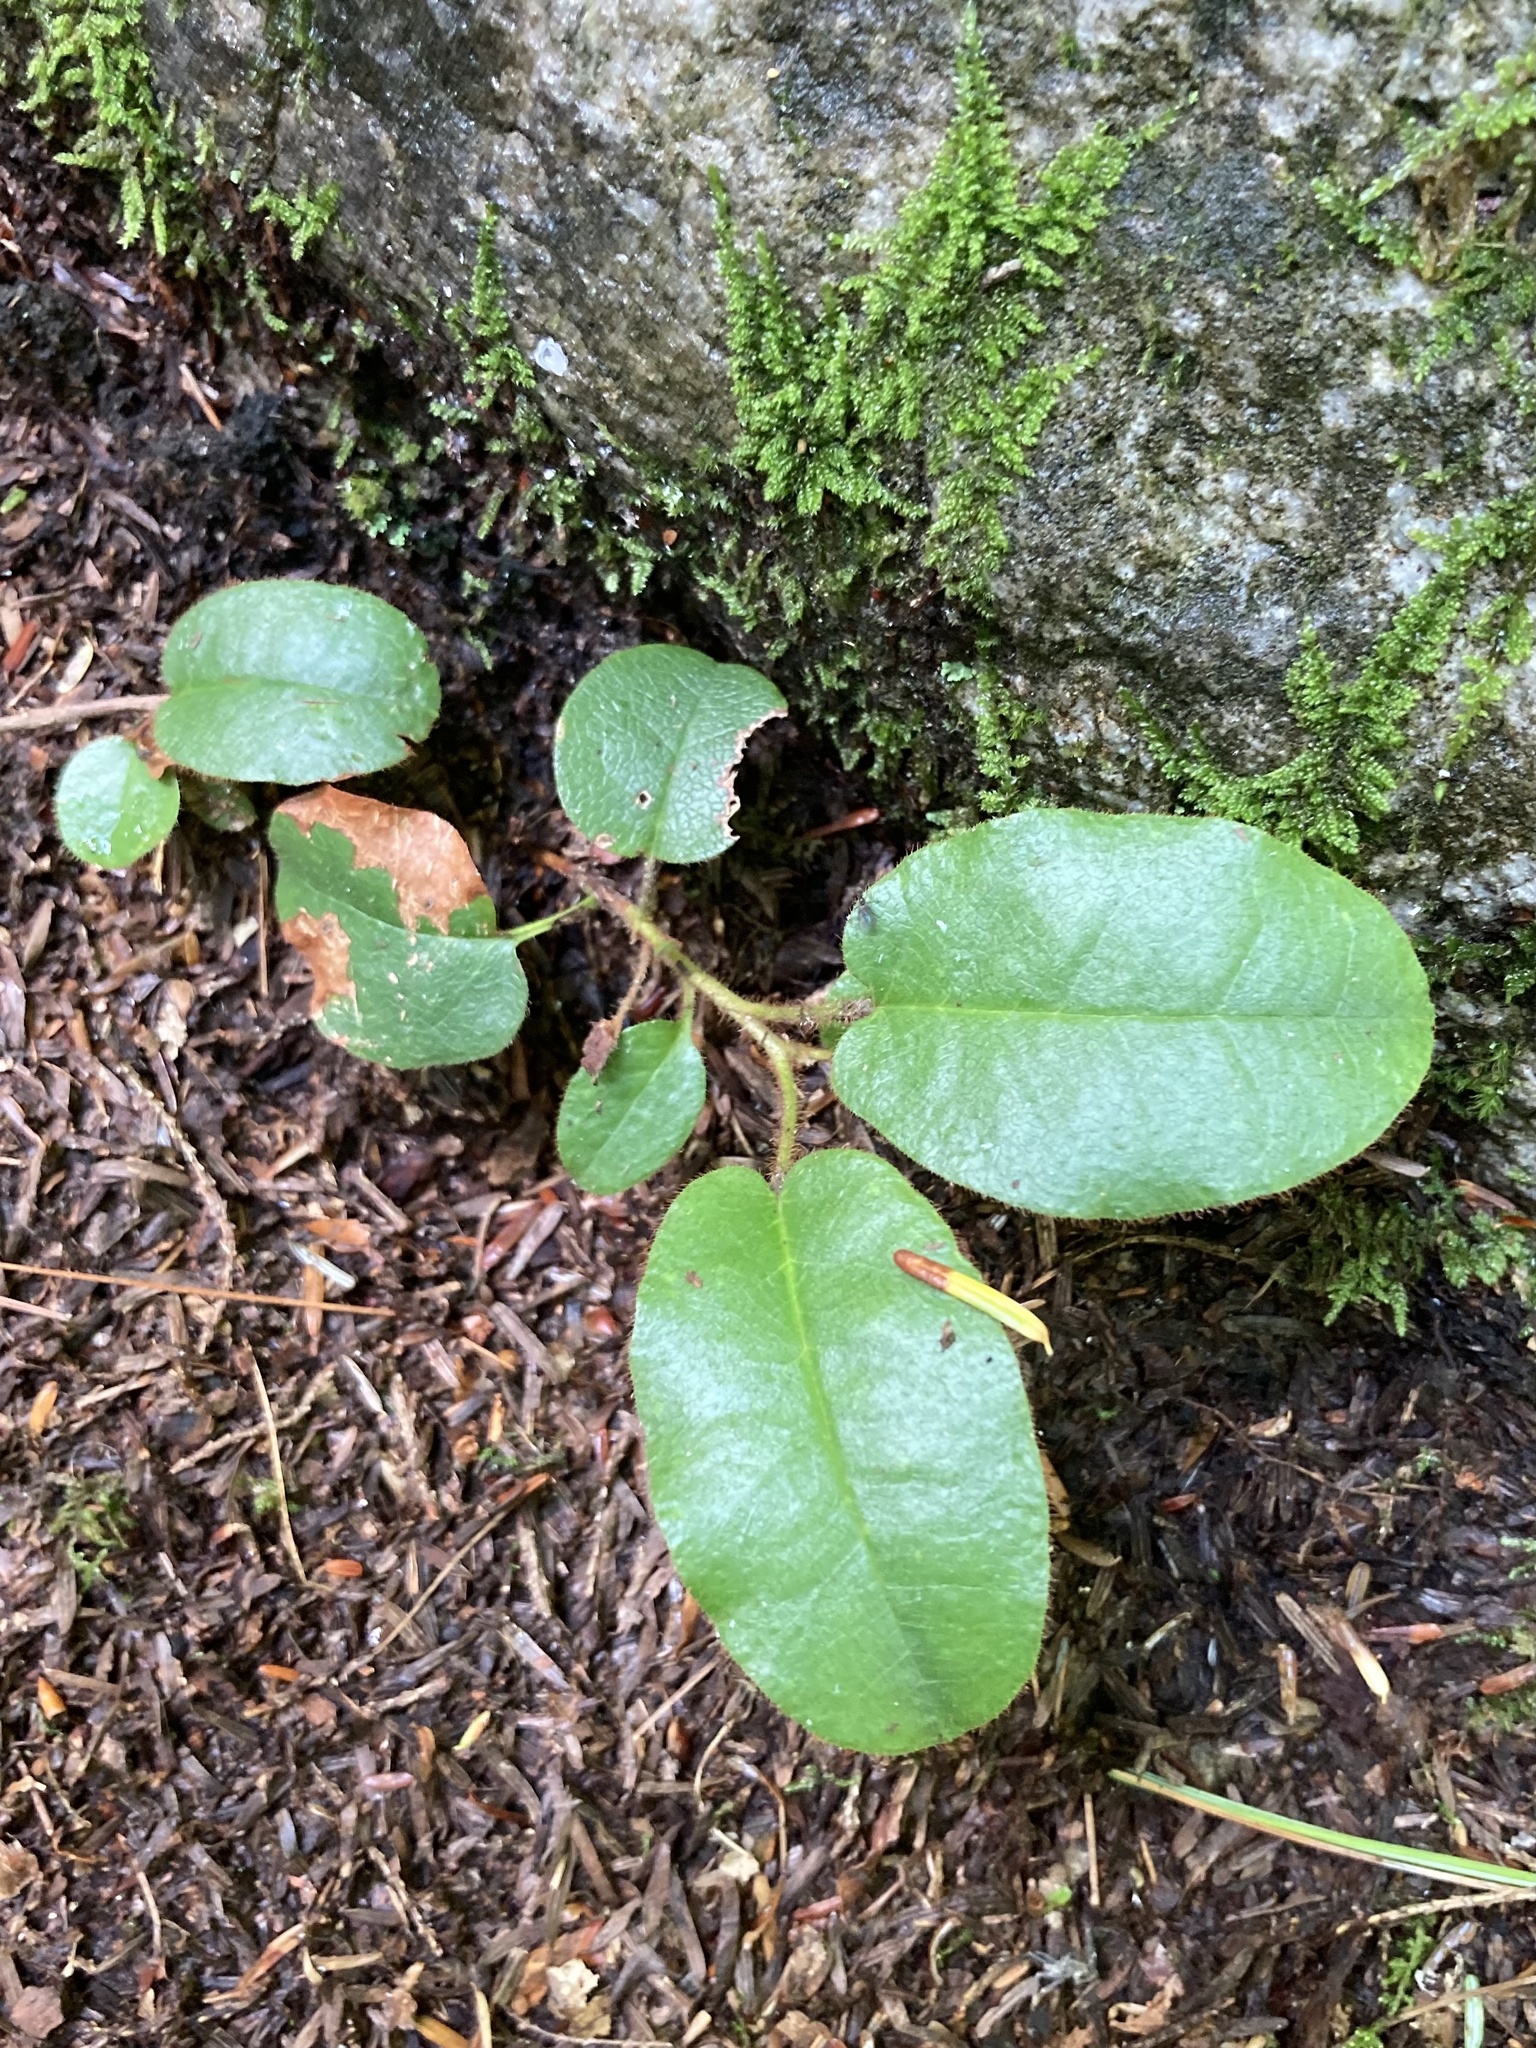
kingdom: Plantae
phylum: Tracheophyta
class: Magnoliopsida
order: Ericales
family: Ericaceae
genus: Epigaea
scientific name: Epigaea repens
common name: Gravelroot
